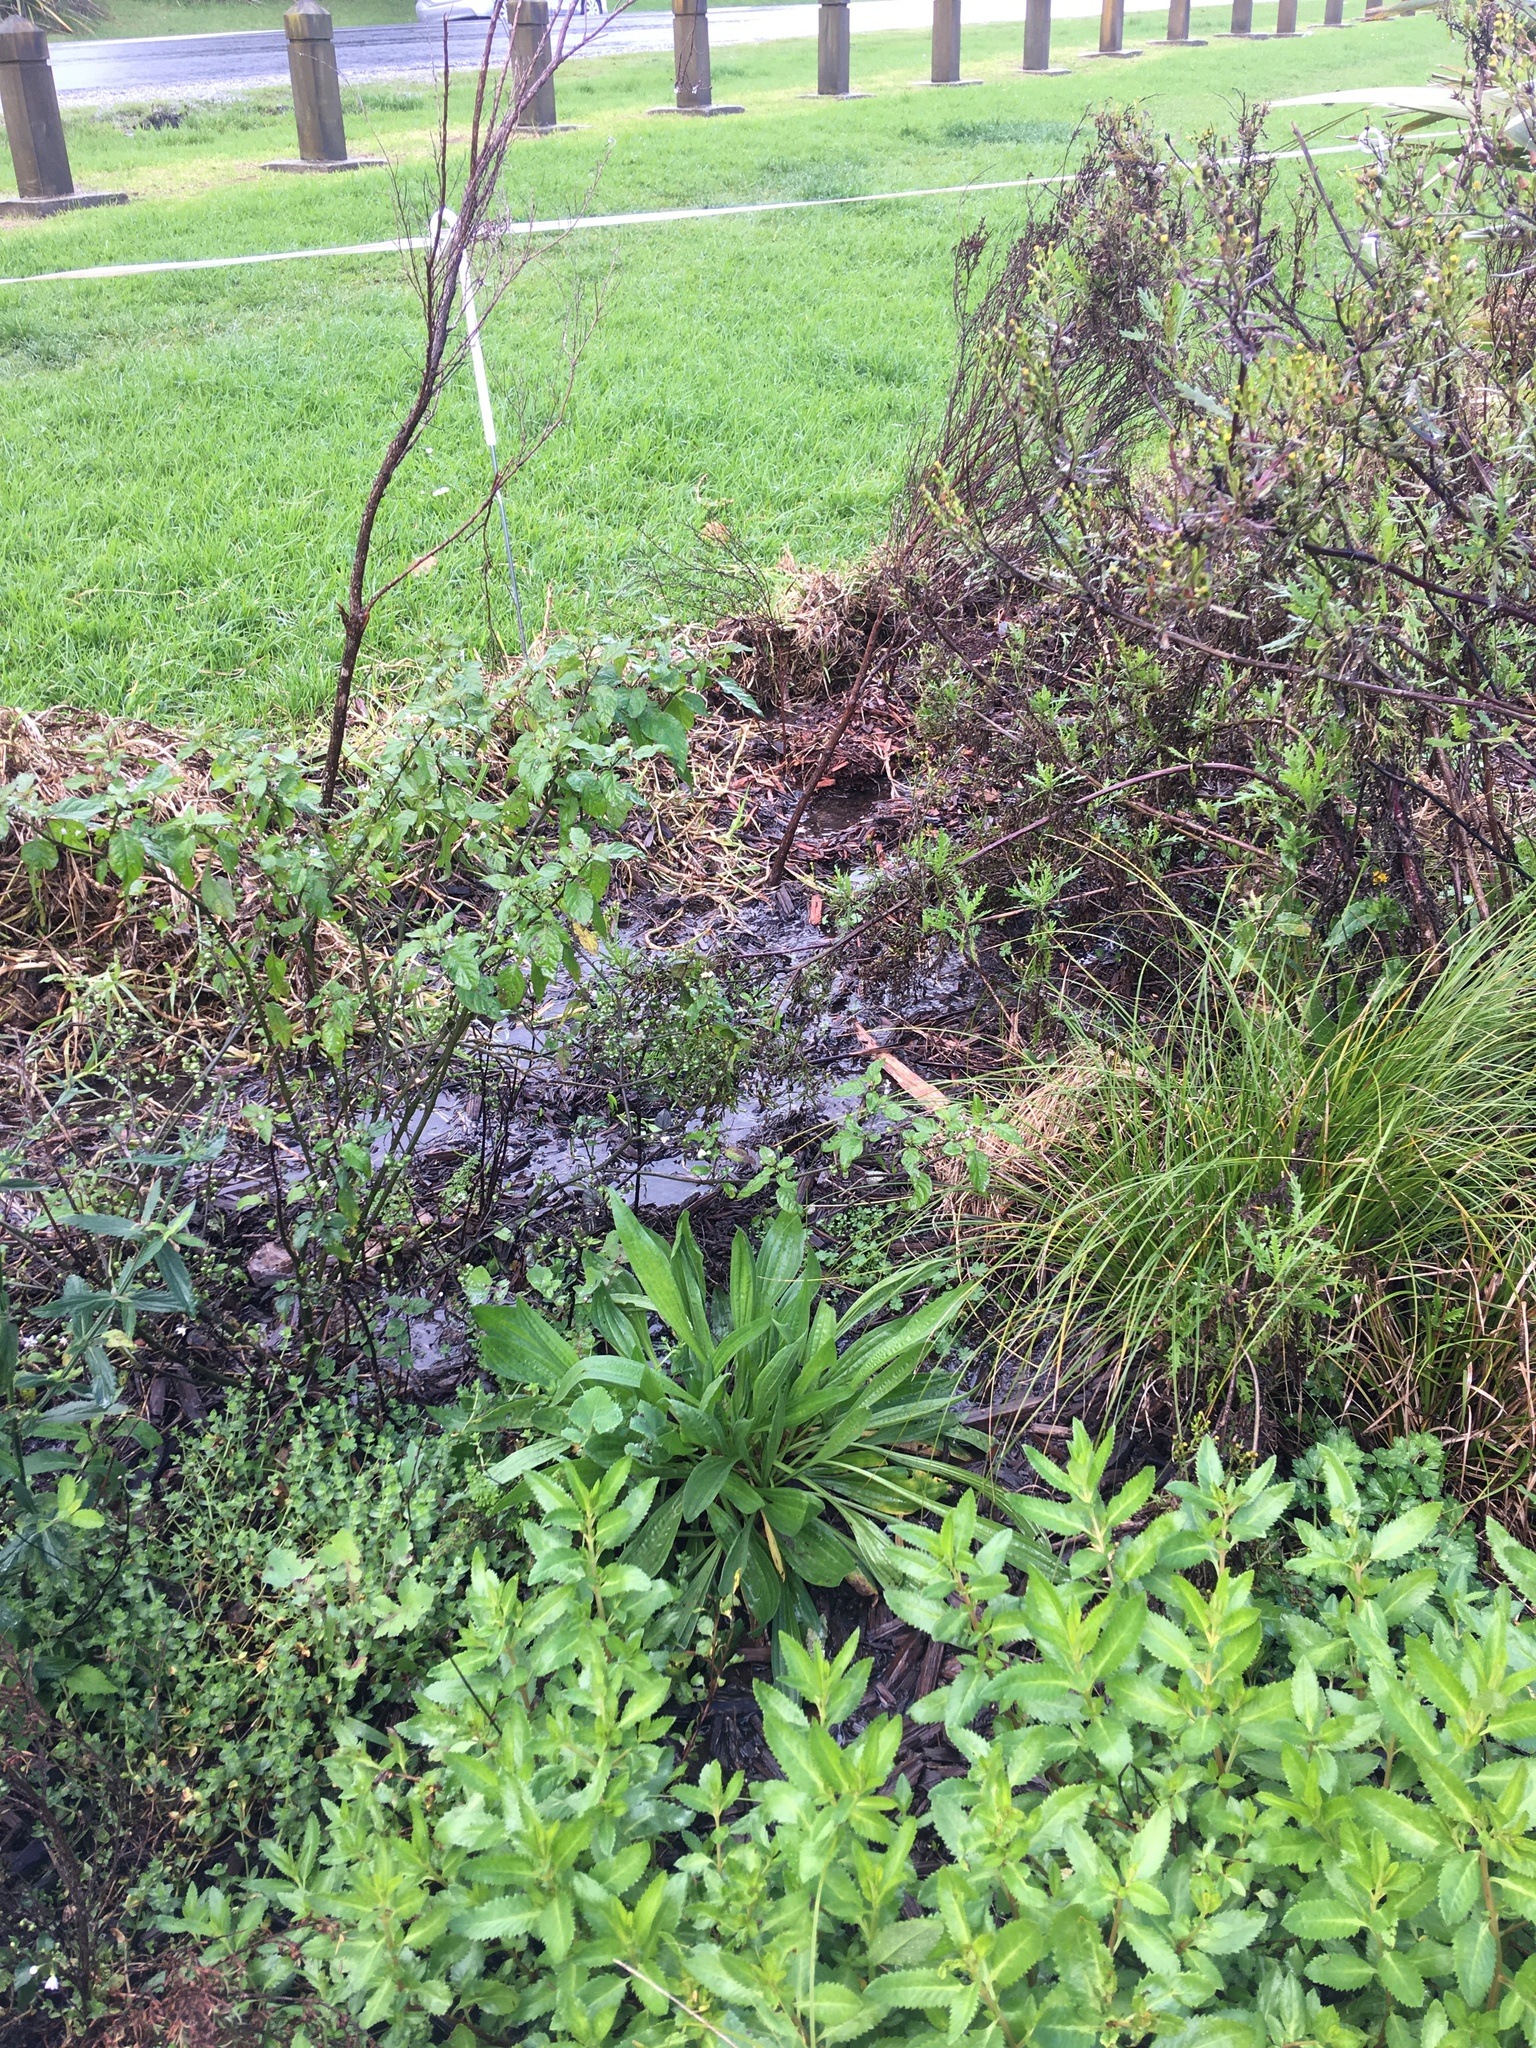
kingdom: Plantae
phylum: Tracheophyta
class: Magnoliopsida
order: Lamiales
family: Plantaginaceae
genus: Plantago
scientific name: Plantago lanceolata
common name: Ribwort plantain
